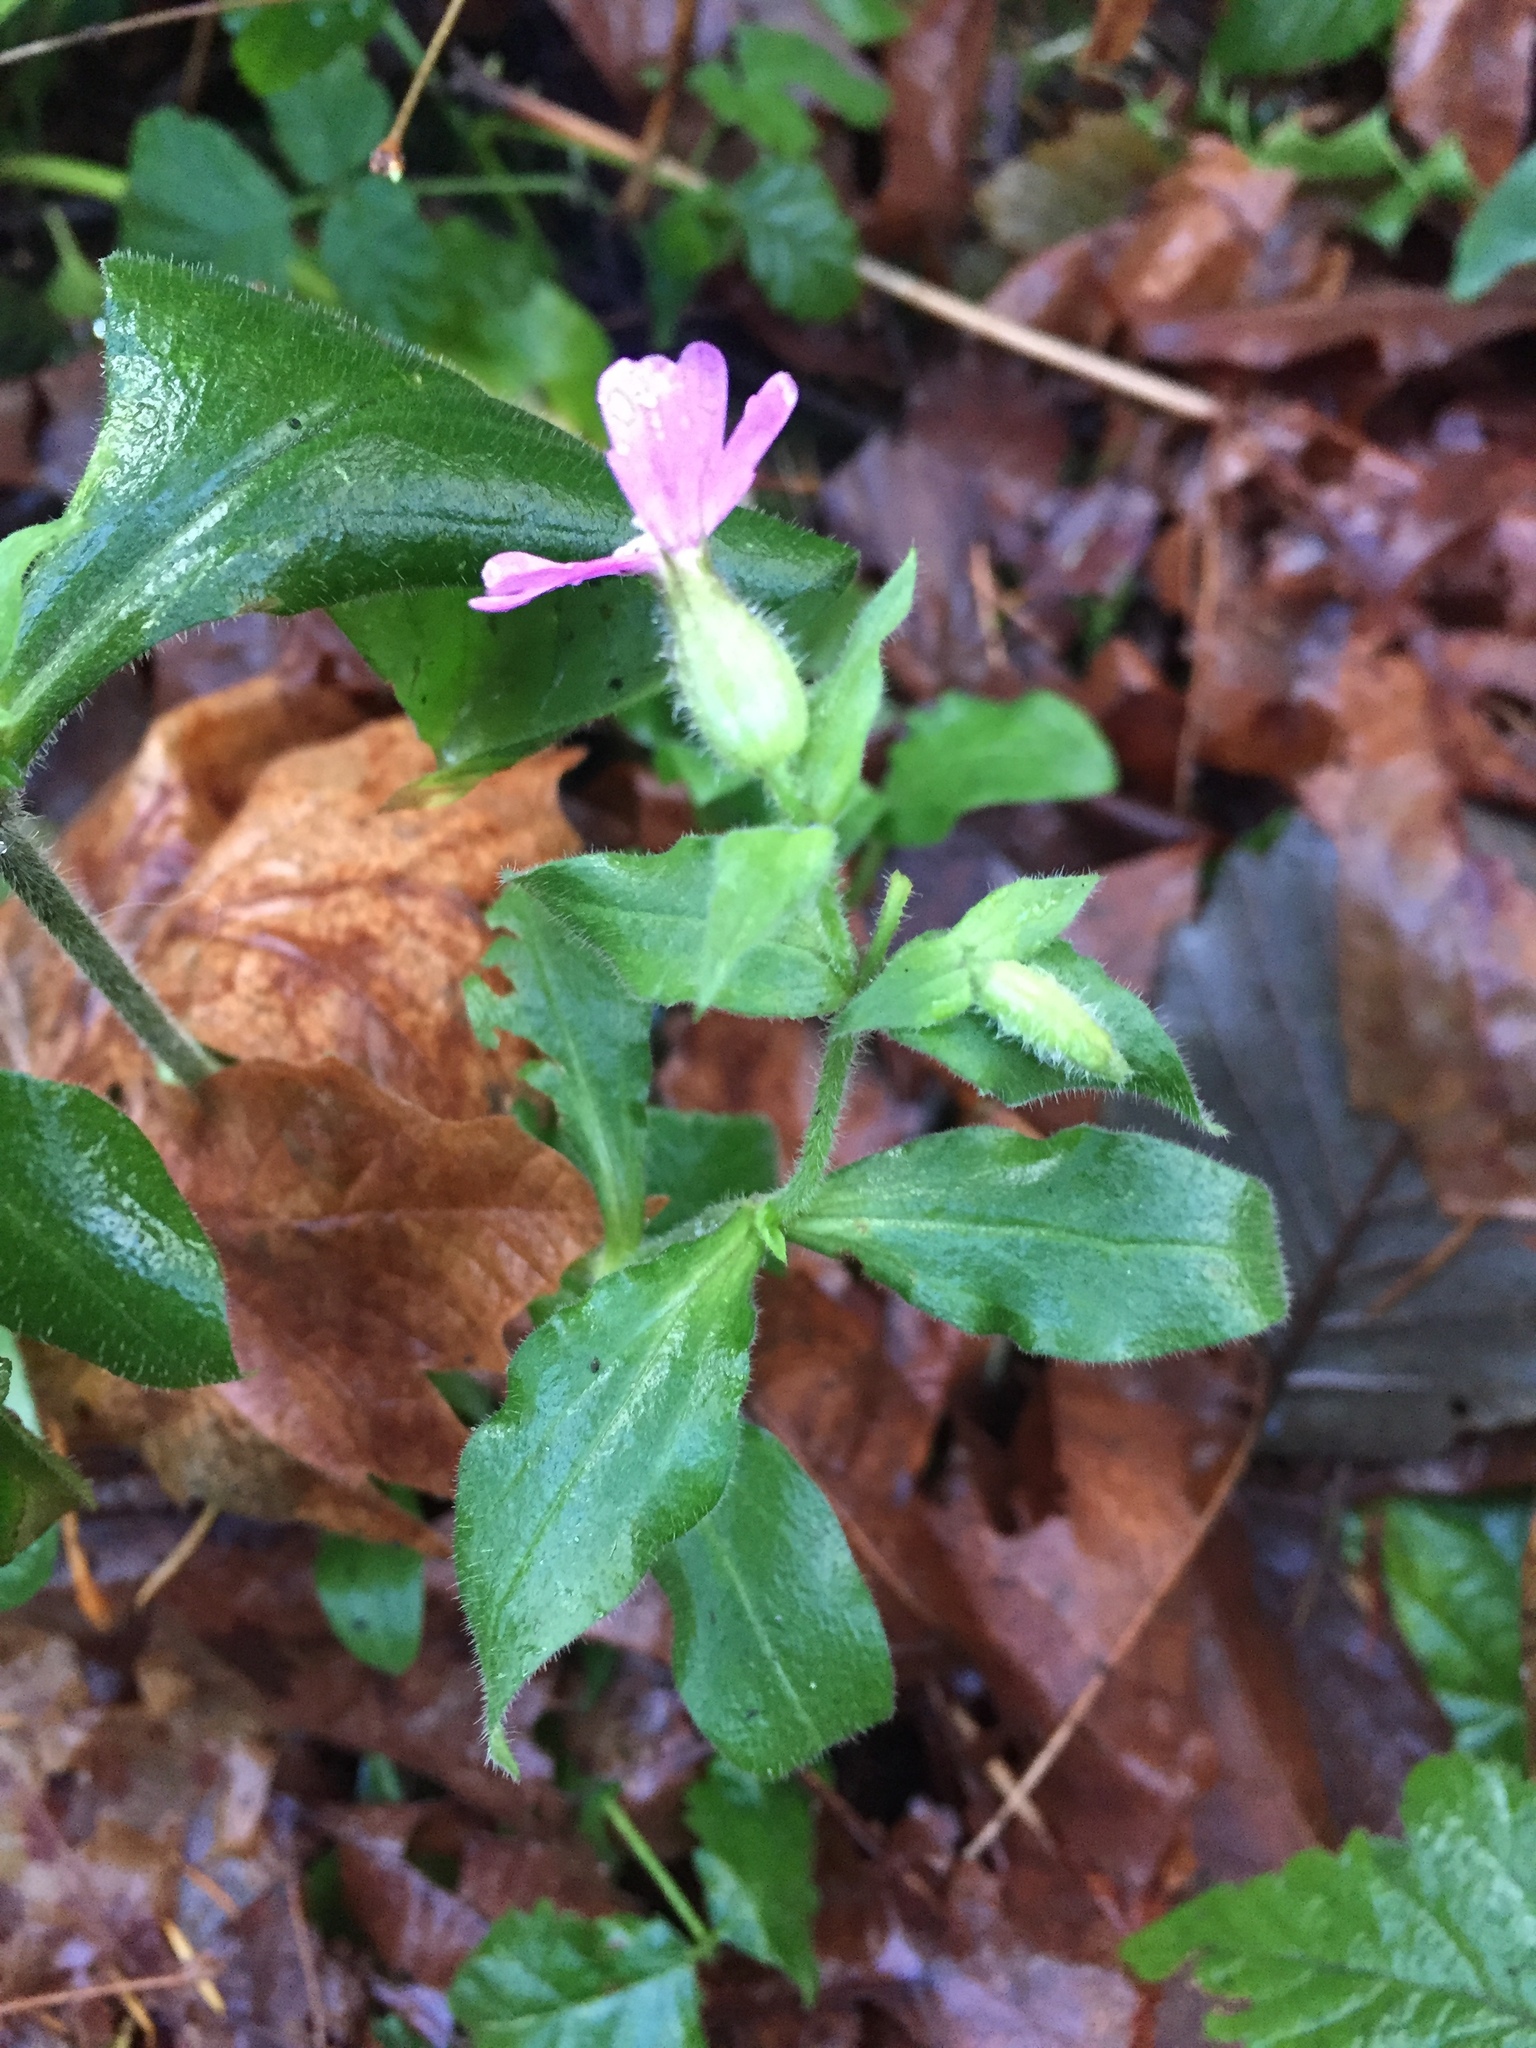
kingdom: Plantae
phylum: Tracheophyta
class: Magnoliopsida
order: Caryophyllales
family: Caryophyllaceae
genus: Silene
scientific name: Silene dioica
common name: Red campion
